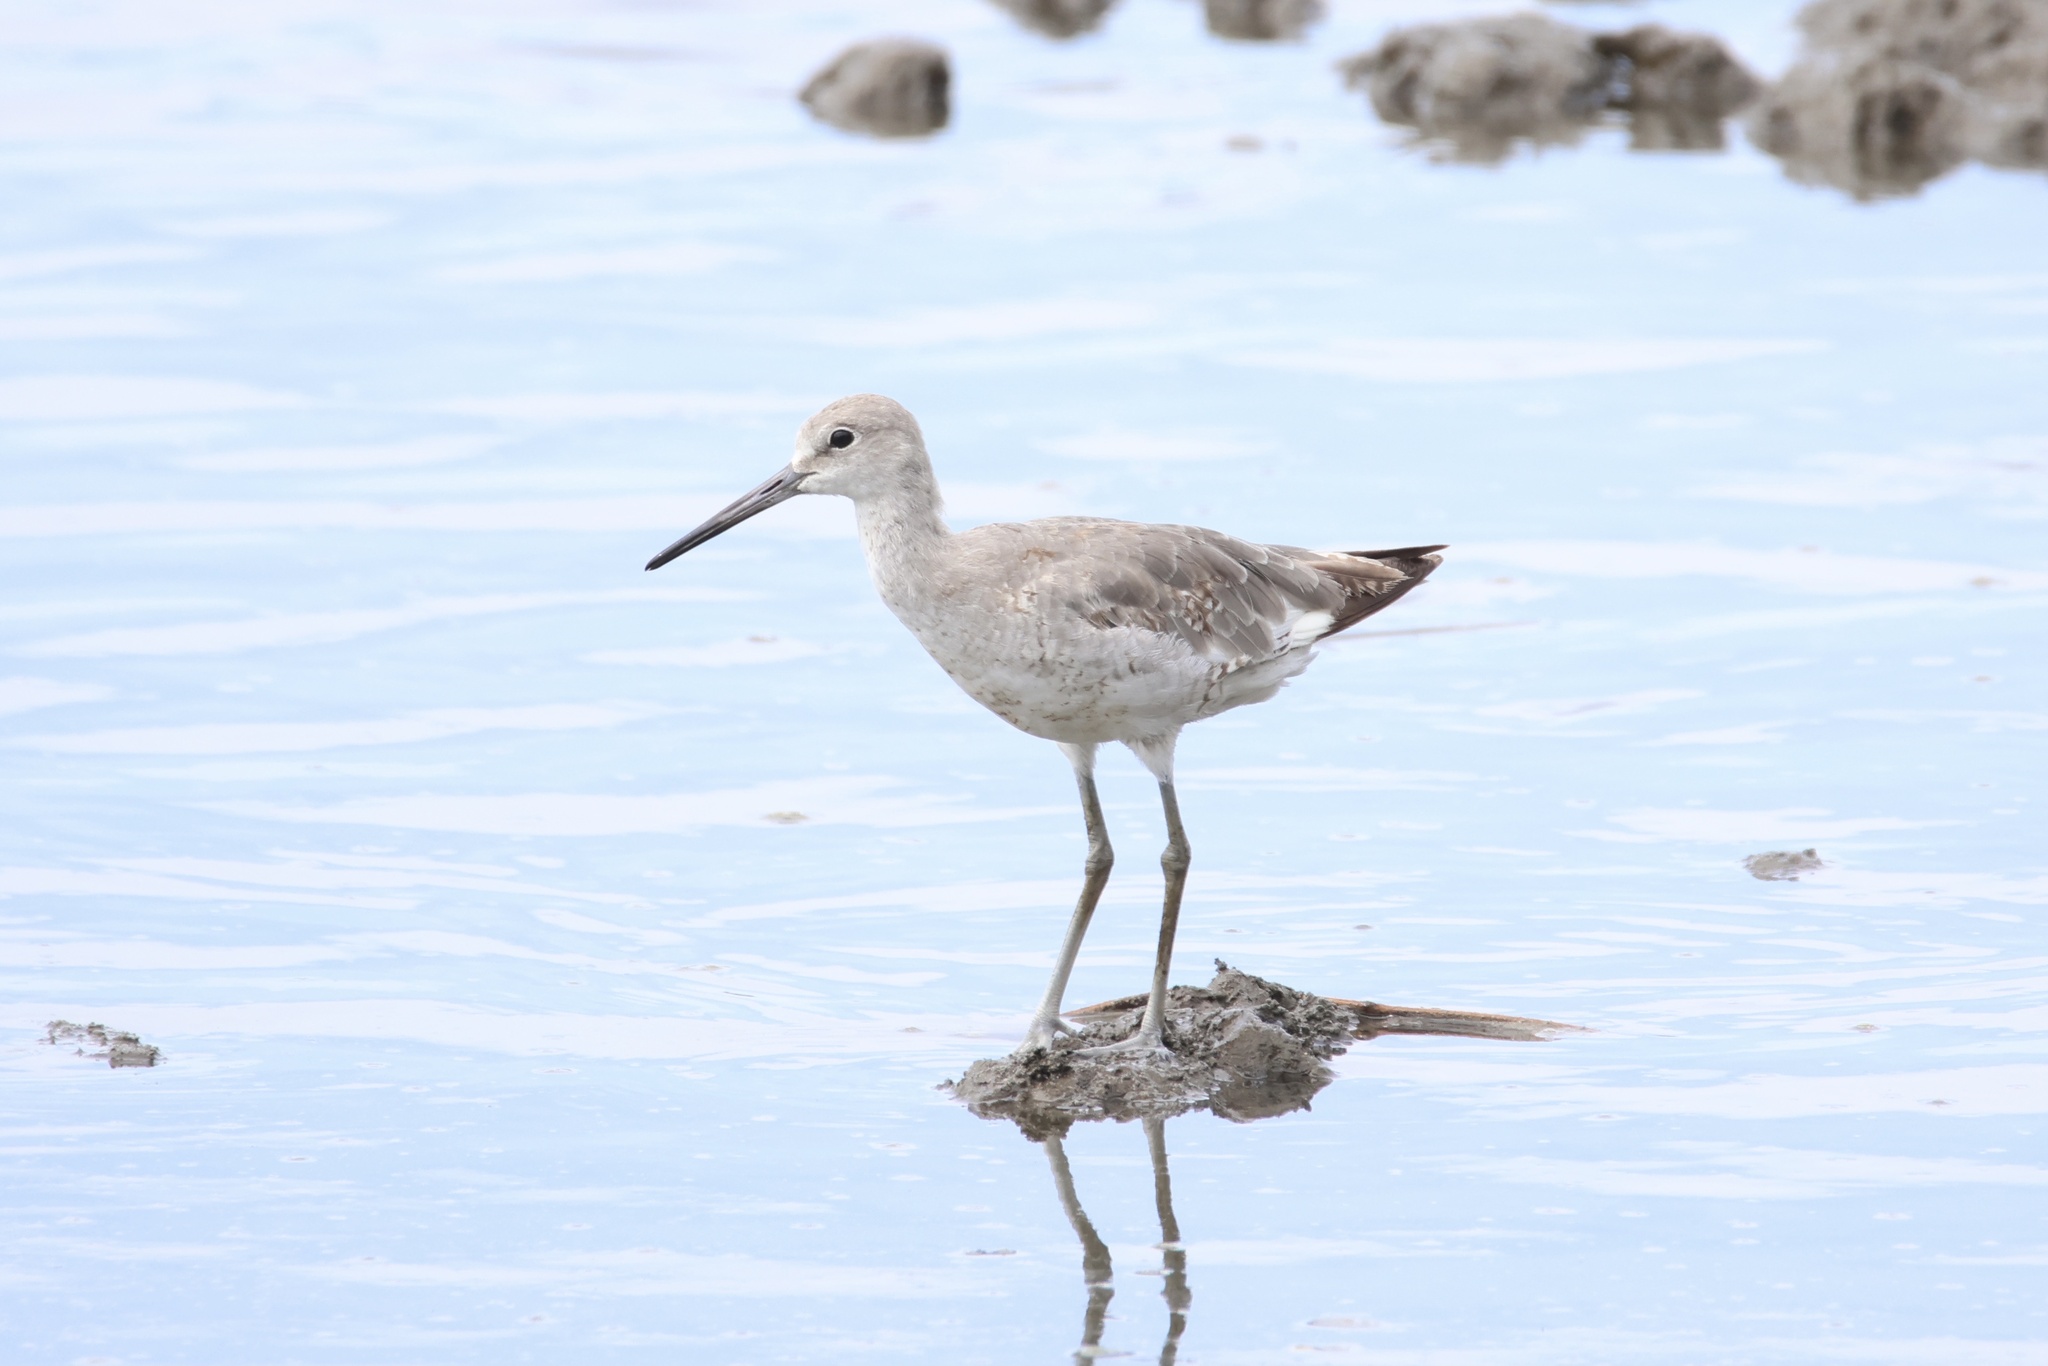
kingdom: Animalia
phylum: Chordata
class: Aves
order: Charadriiformes
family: Scolopacidae
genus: Tringa
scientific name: Tringa semipalmata
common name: Willet
